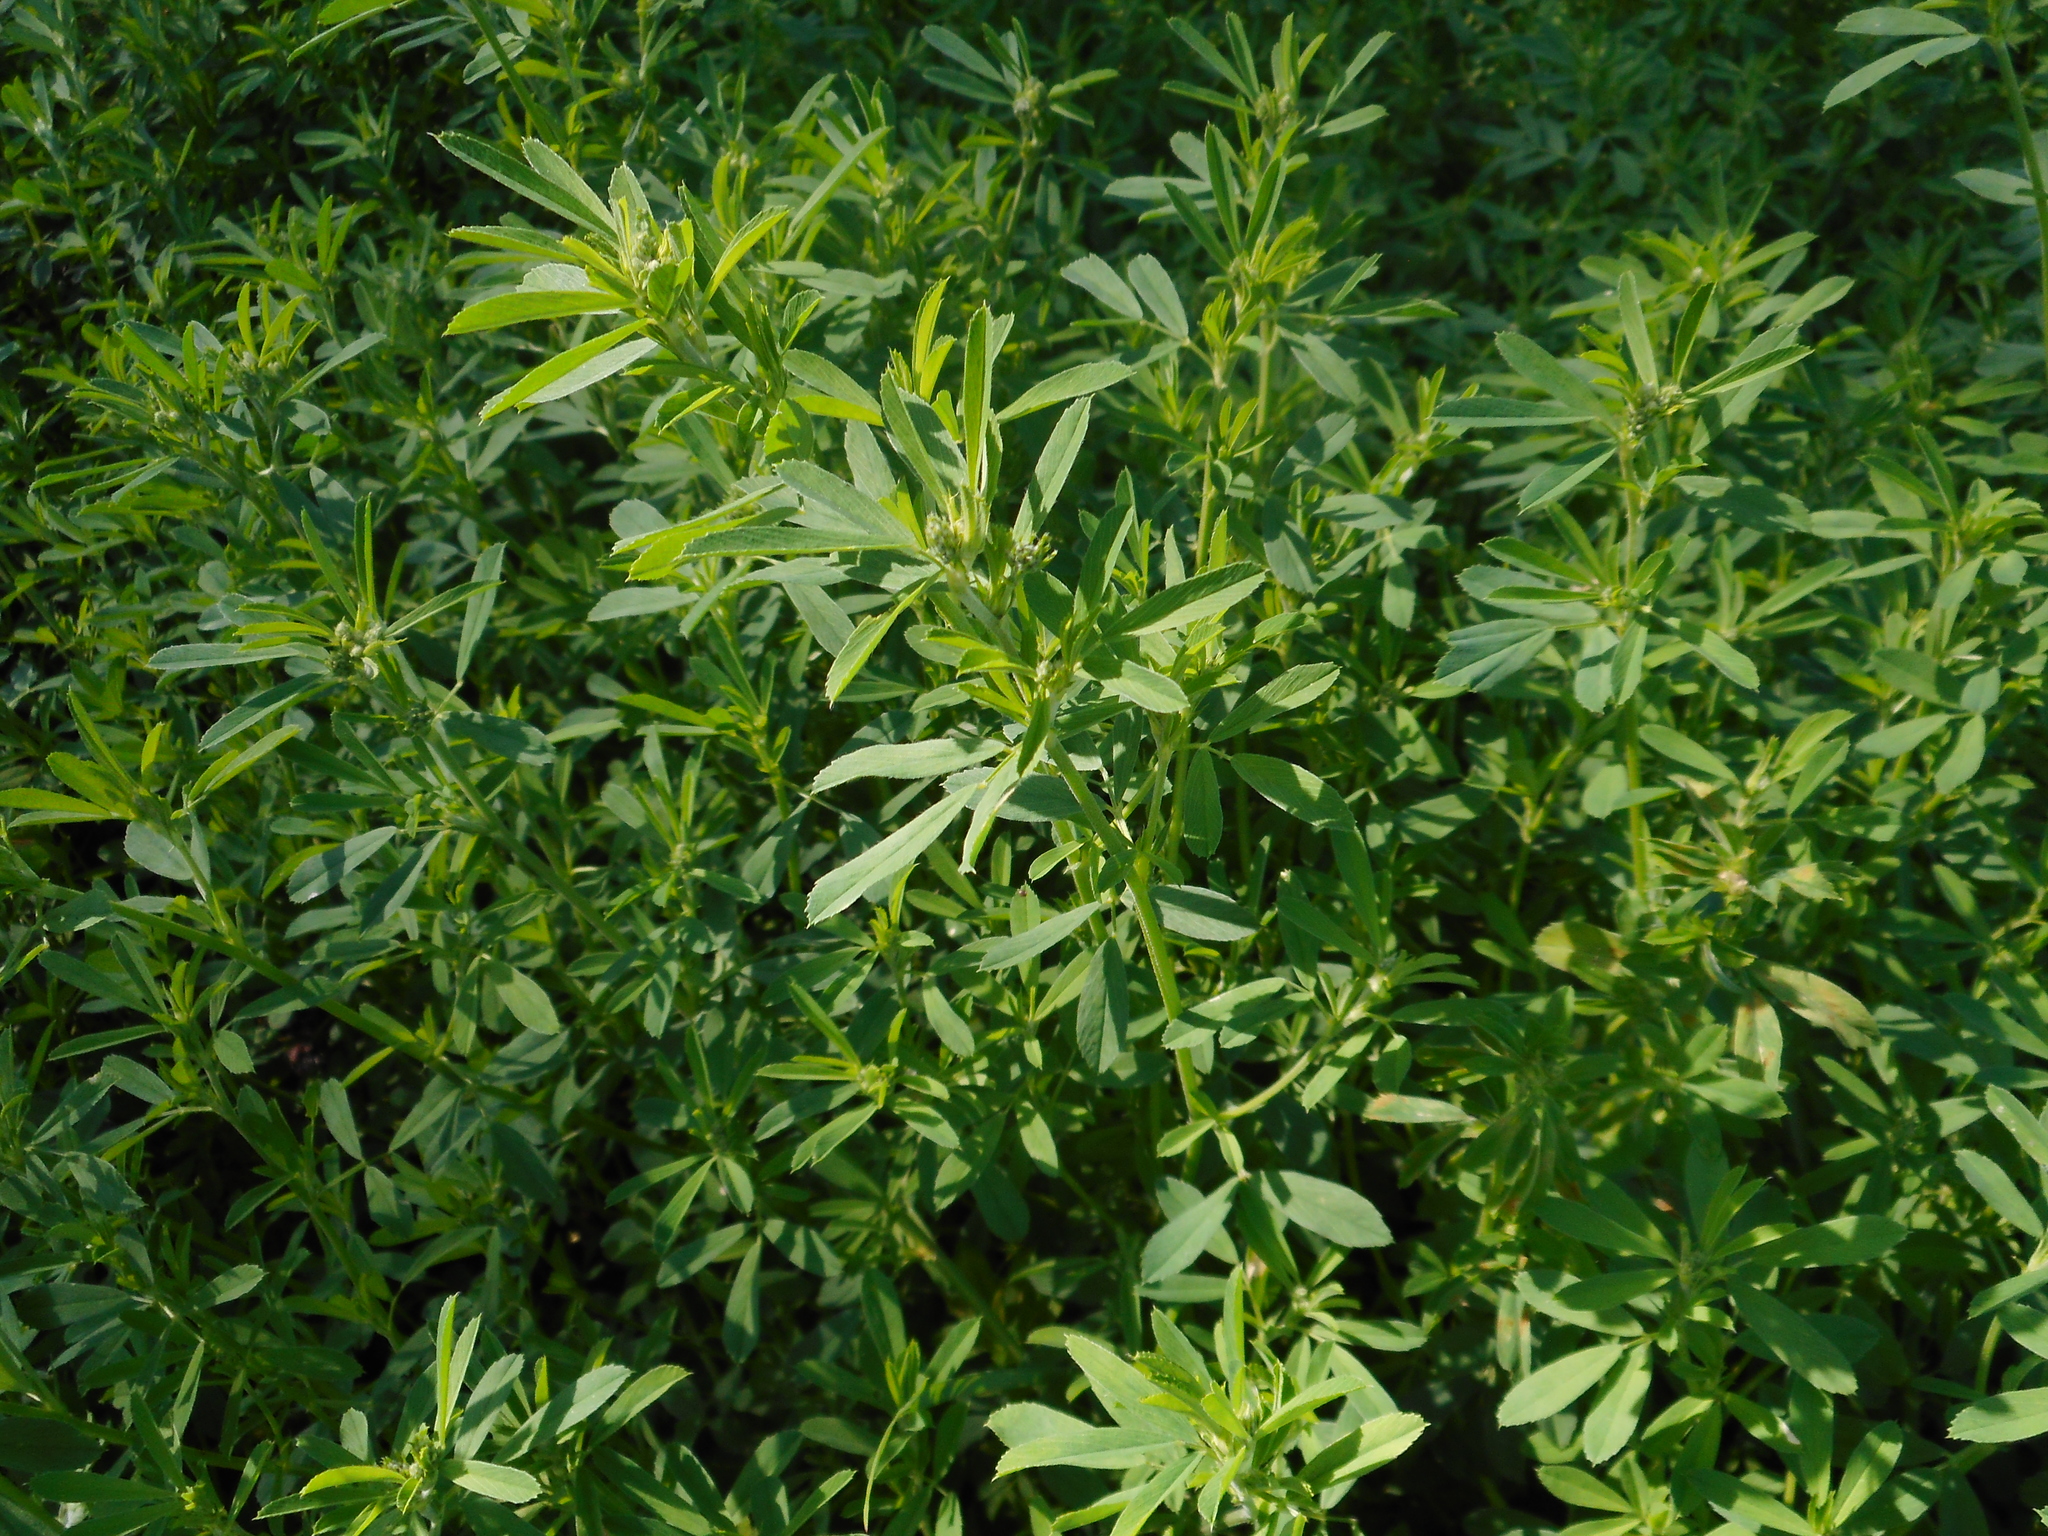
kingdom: Plantae
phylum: Tracheophyta
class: Magnoliopsida
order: Fabales
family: Fabaceae
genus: Medicago
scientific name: Medicago falcata
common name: Sickle medick
